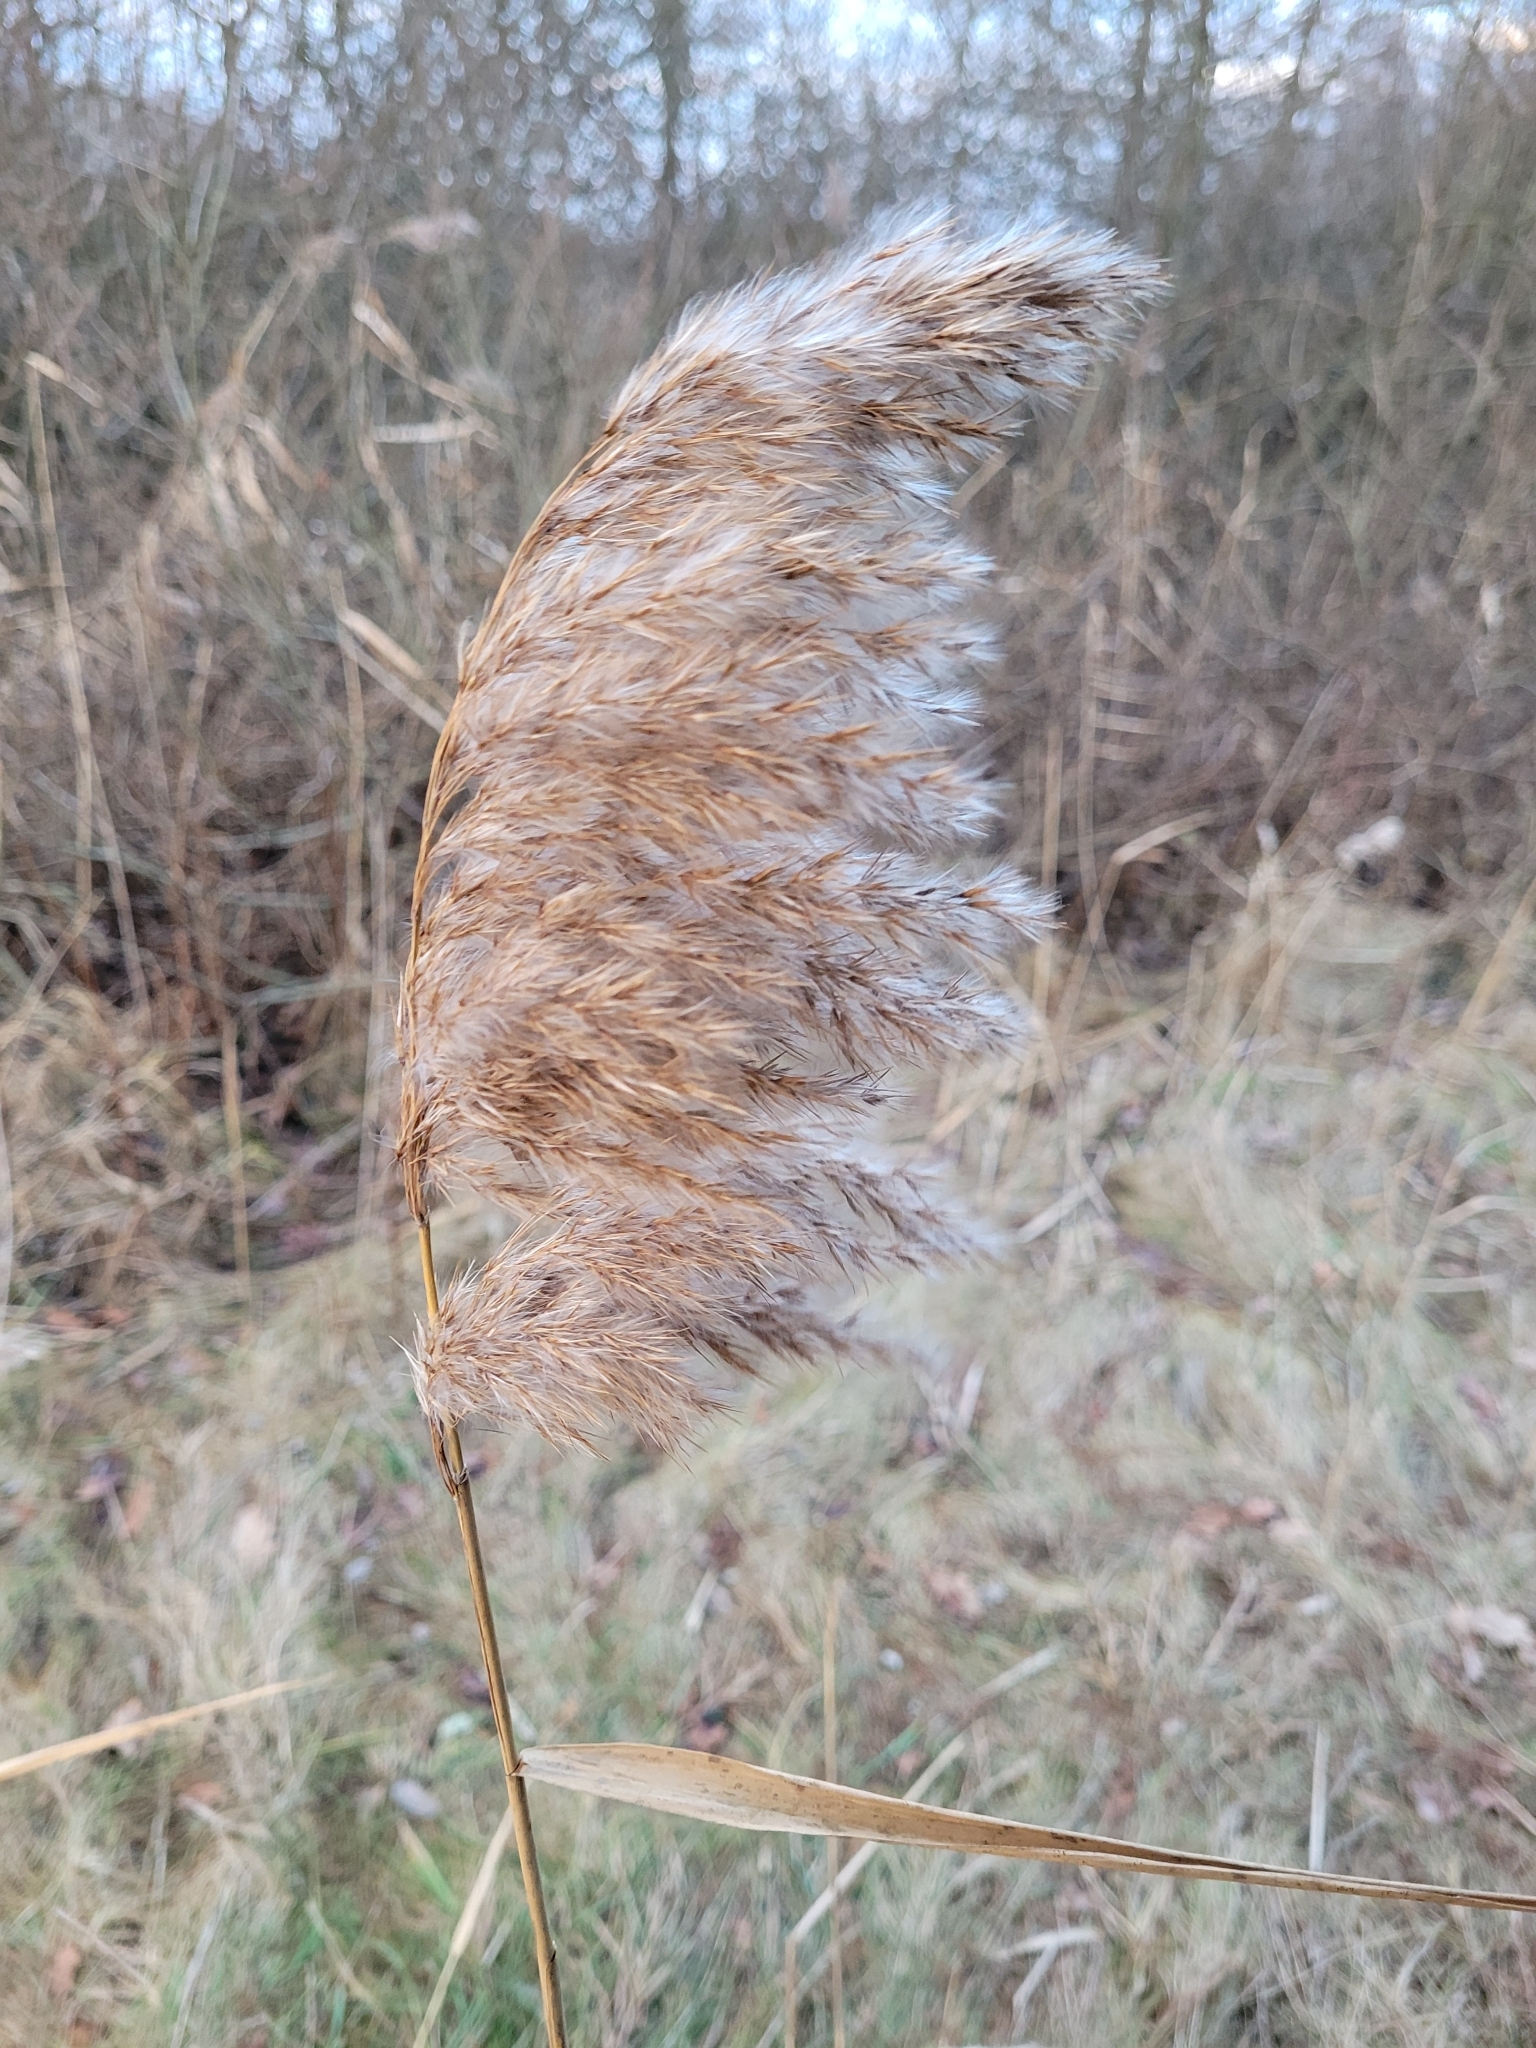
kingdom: Plantae
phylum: Tracheophyta
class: Liliopsida
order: Poales
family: Poaceae
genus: Phragmites
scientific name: Phragmites australis
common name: Common reed
